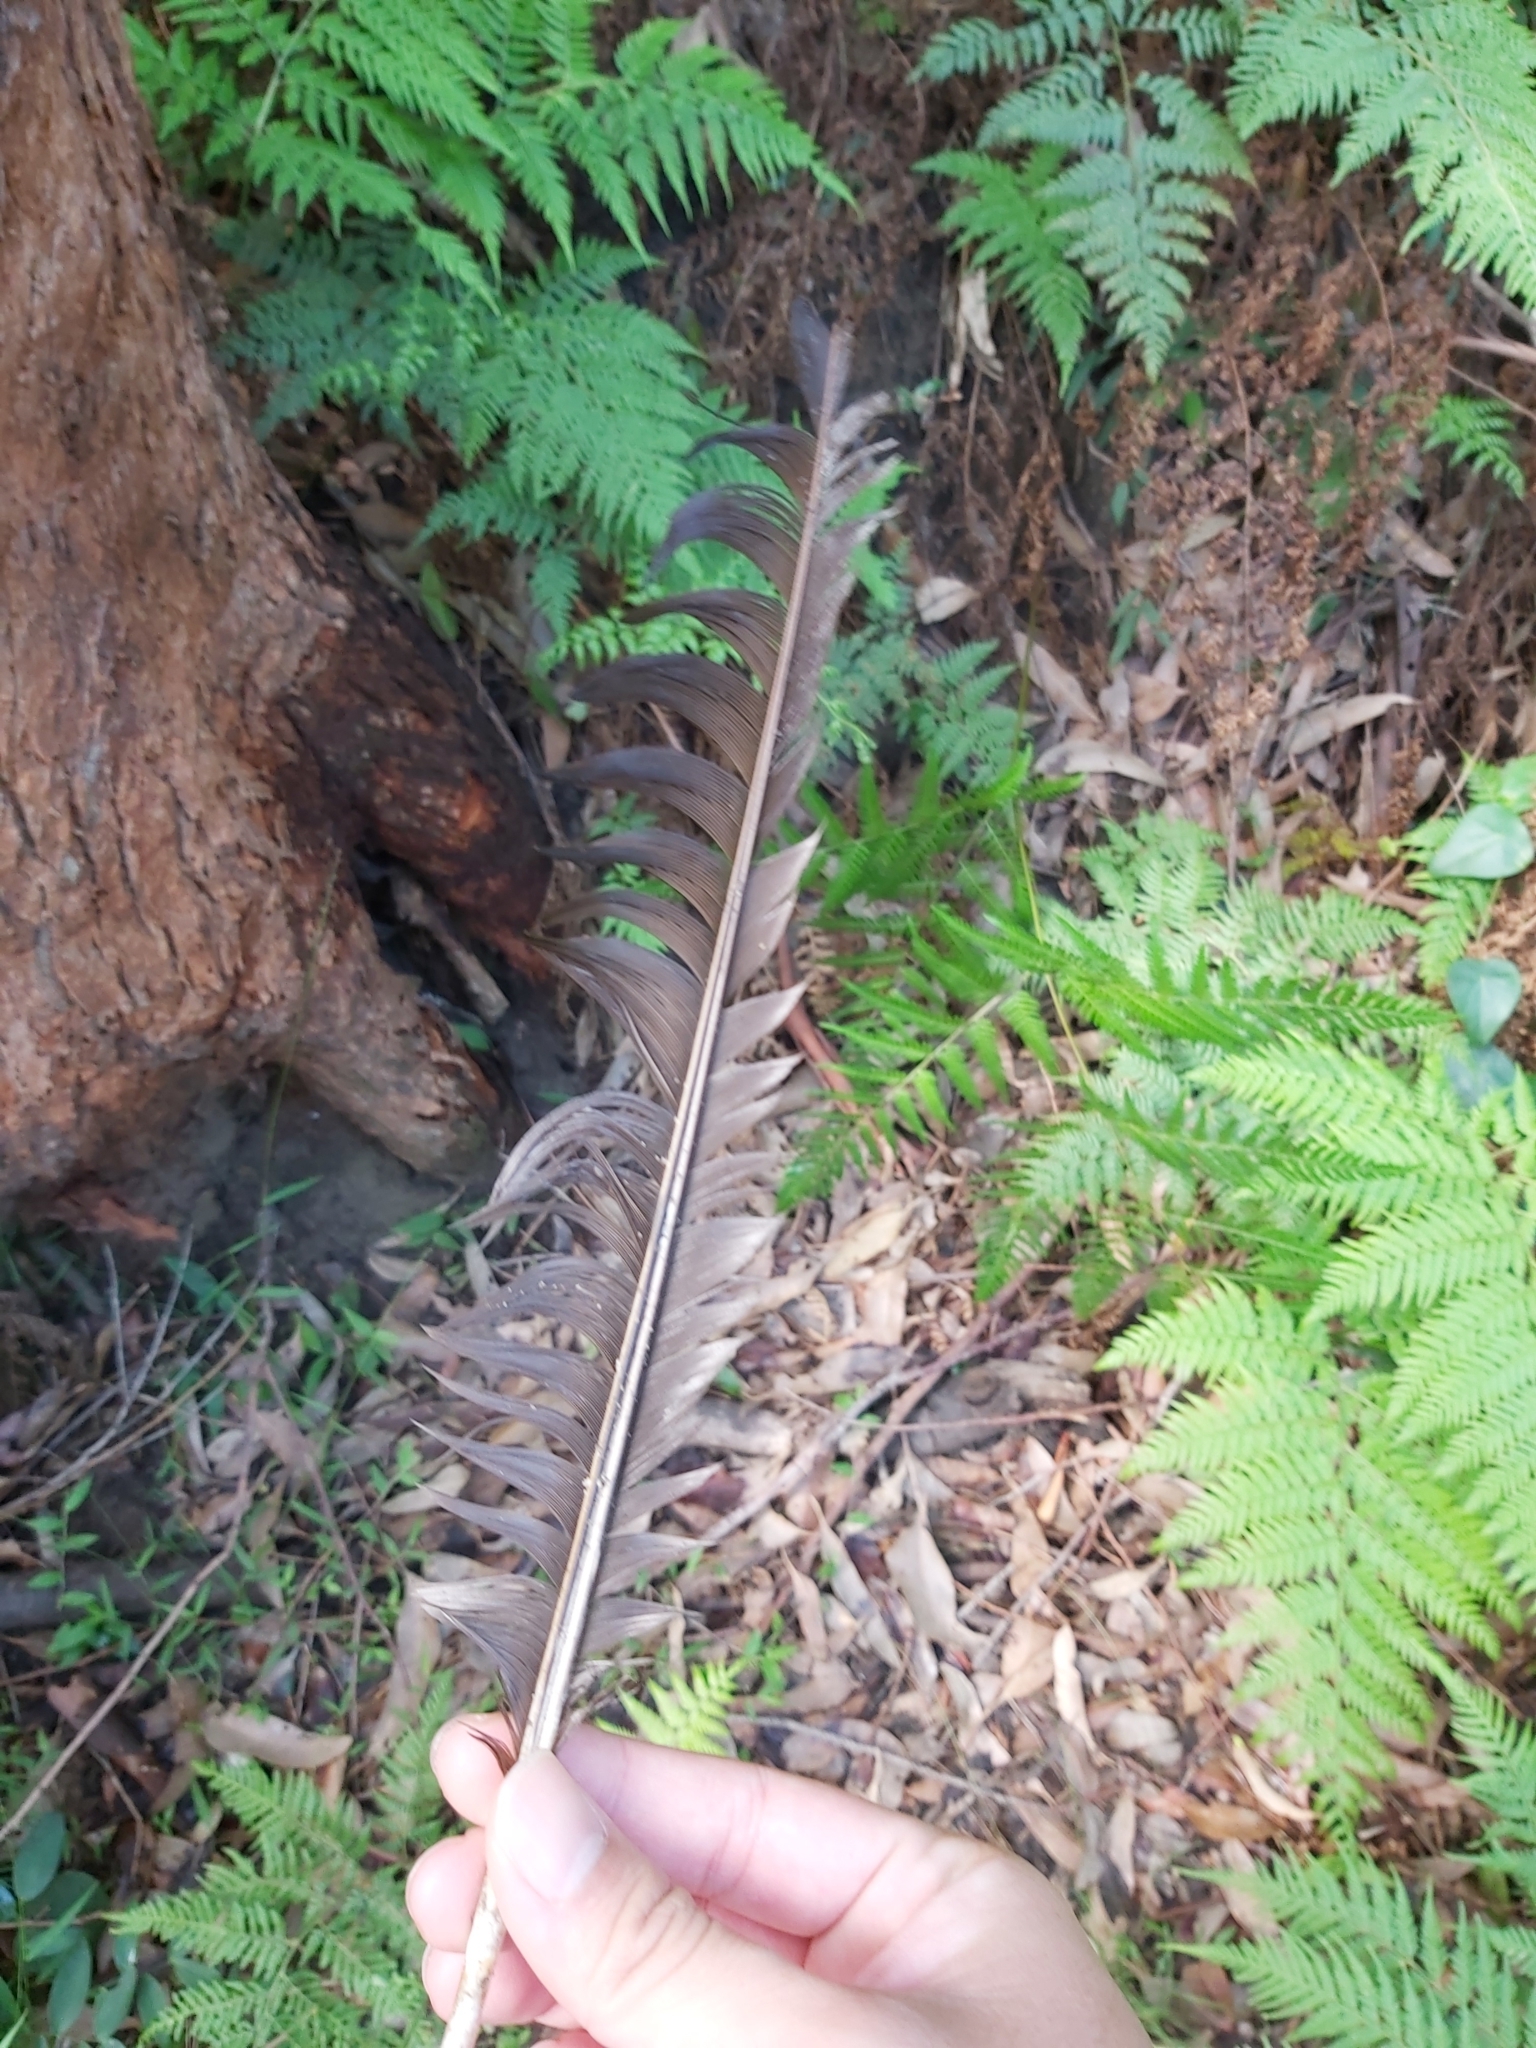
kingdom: Animalia
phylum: Chordata
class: Aves
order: Galliformes
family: Megapodiidae
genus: Alectura
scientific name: Alectura lathami
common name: Australian brushturkey
